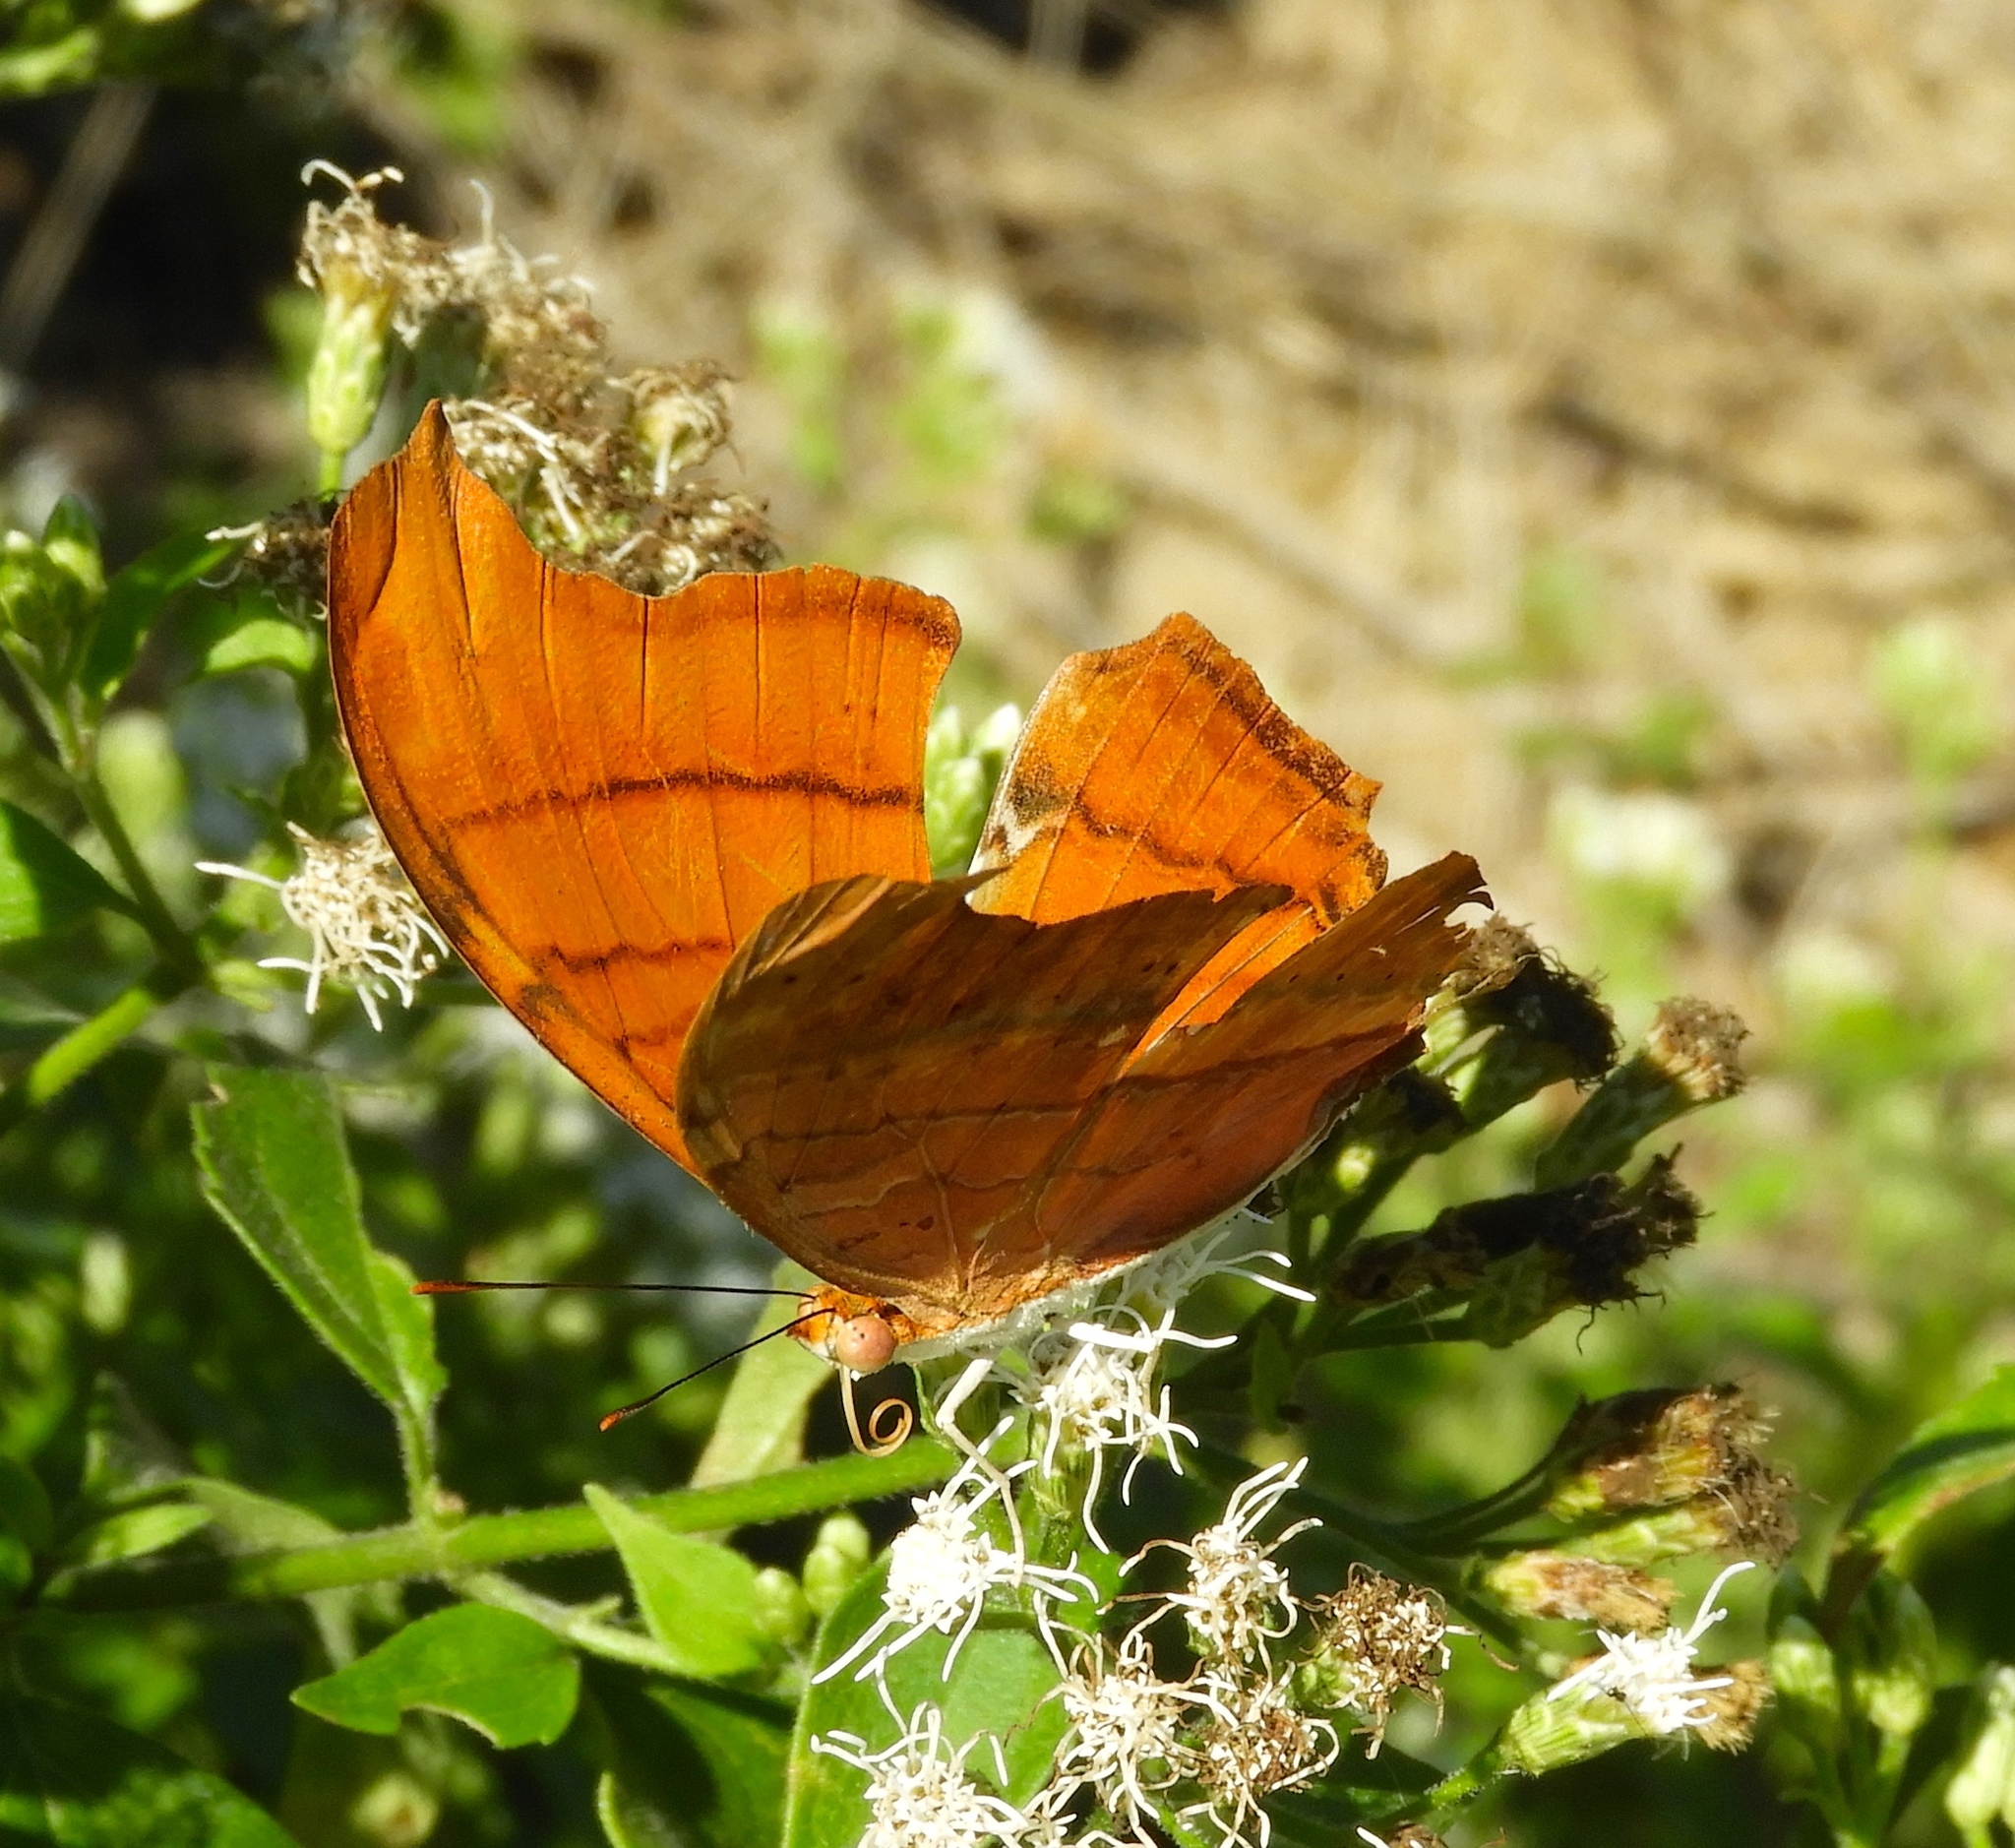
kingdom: Animalia
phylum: Arthropoda
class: Insecta
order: Lepidoptera
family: Nymphalidae
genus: Marpesia
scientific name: Marpesia petreus
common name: Red dagger wing
